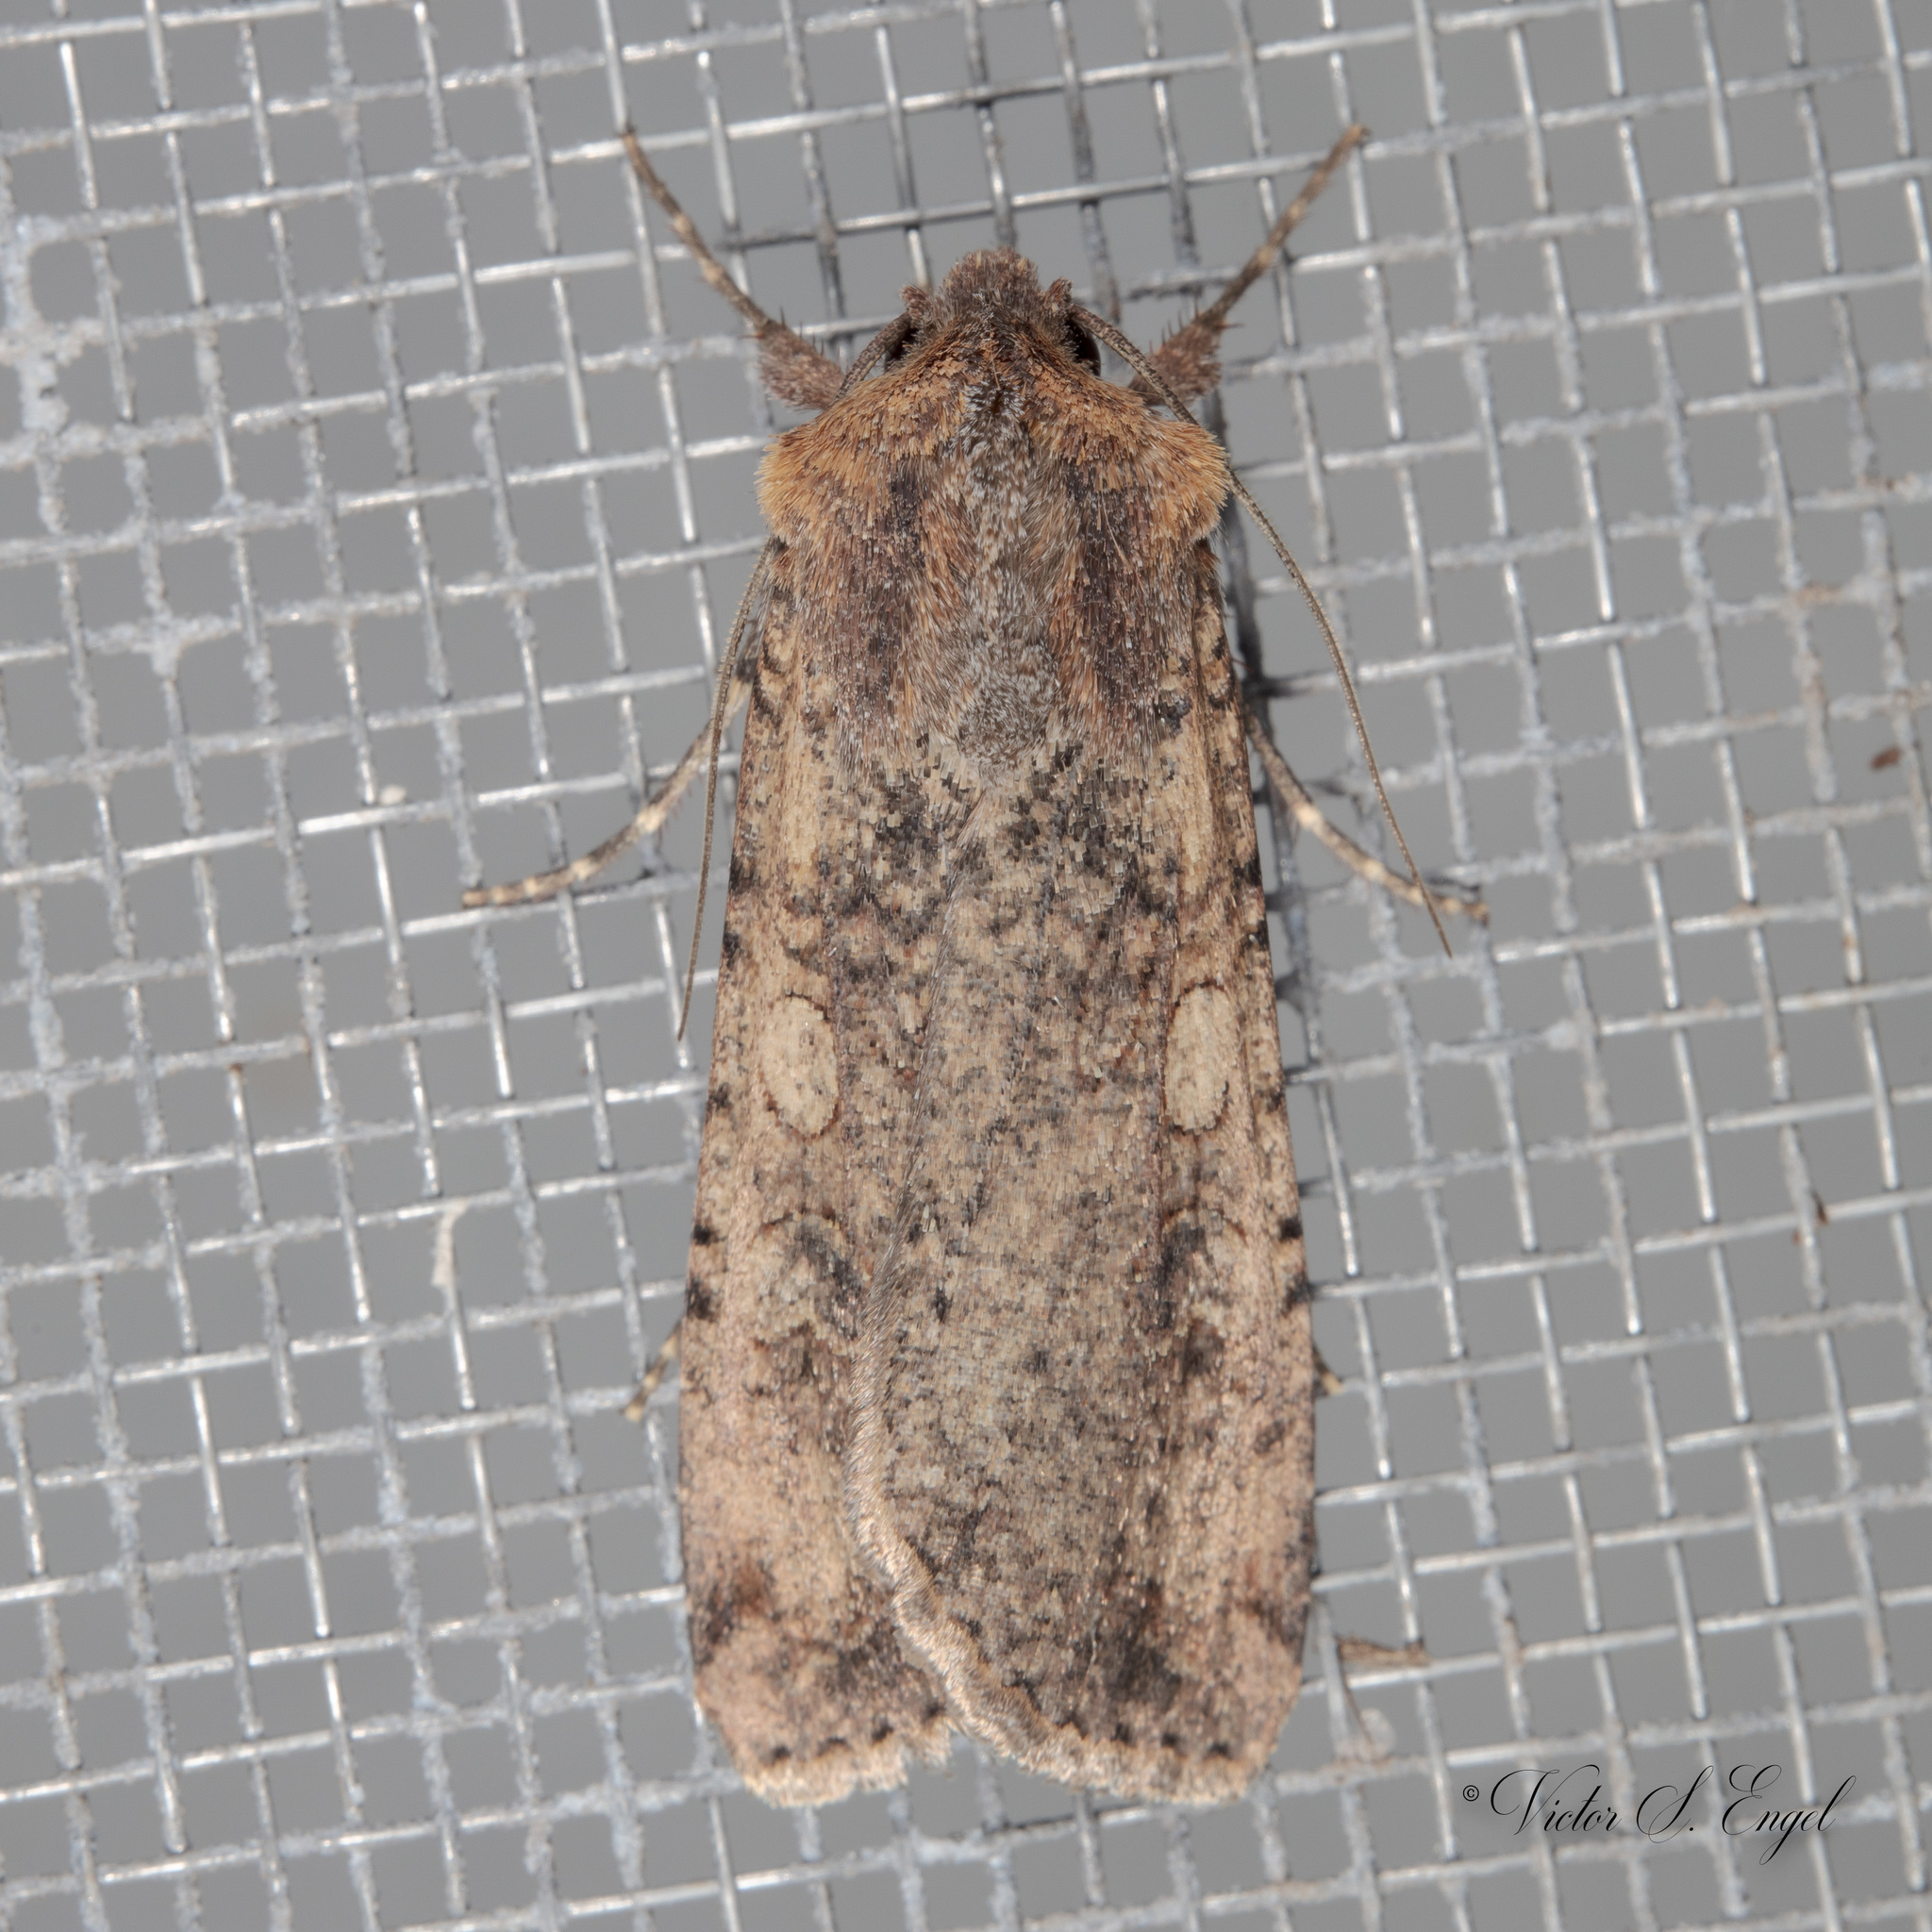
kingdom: Animalia
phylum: Arthropoda
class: Insecta
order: Lepidoptera
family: Noctuidae
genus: Peridroma
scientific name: Peridroma saucia
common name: Pearly underwing
